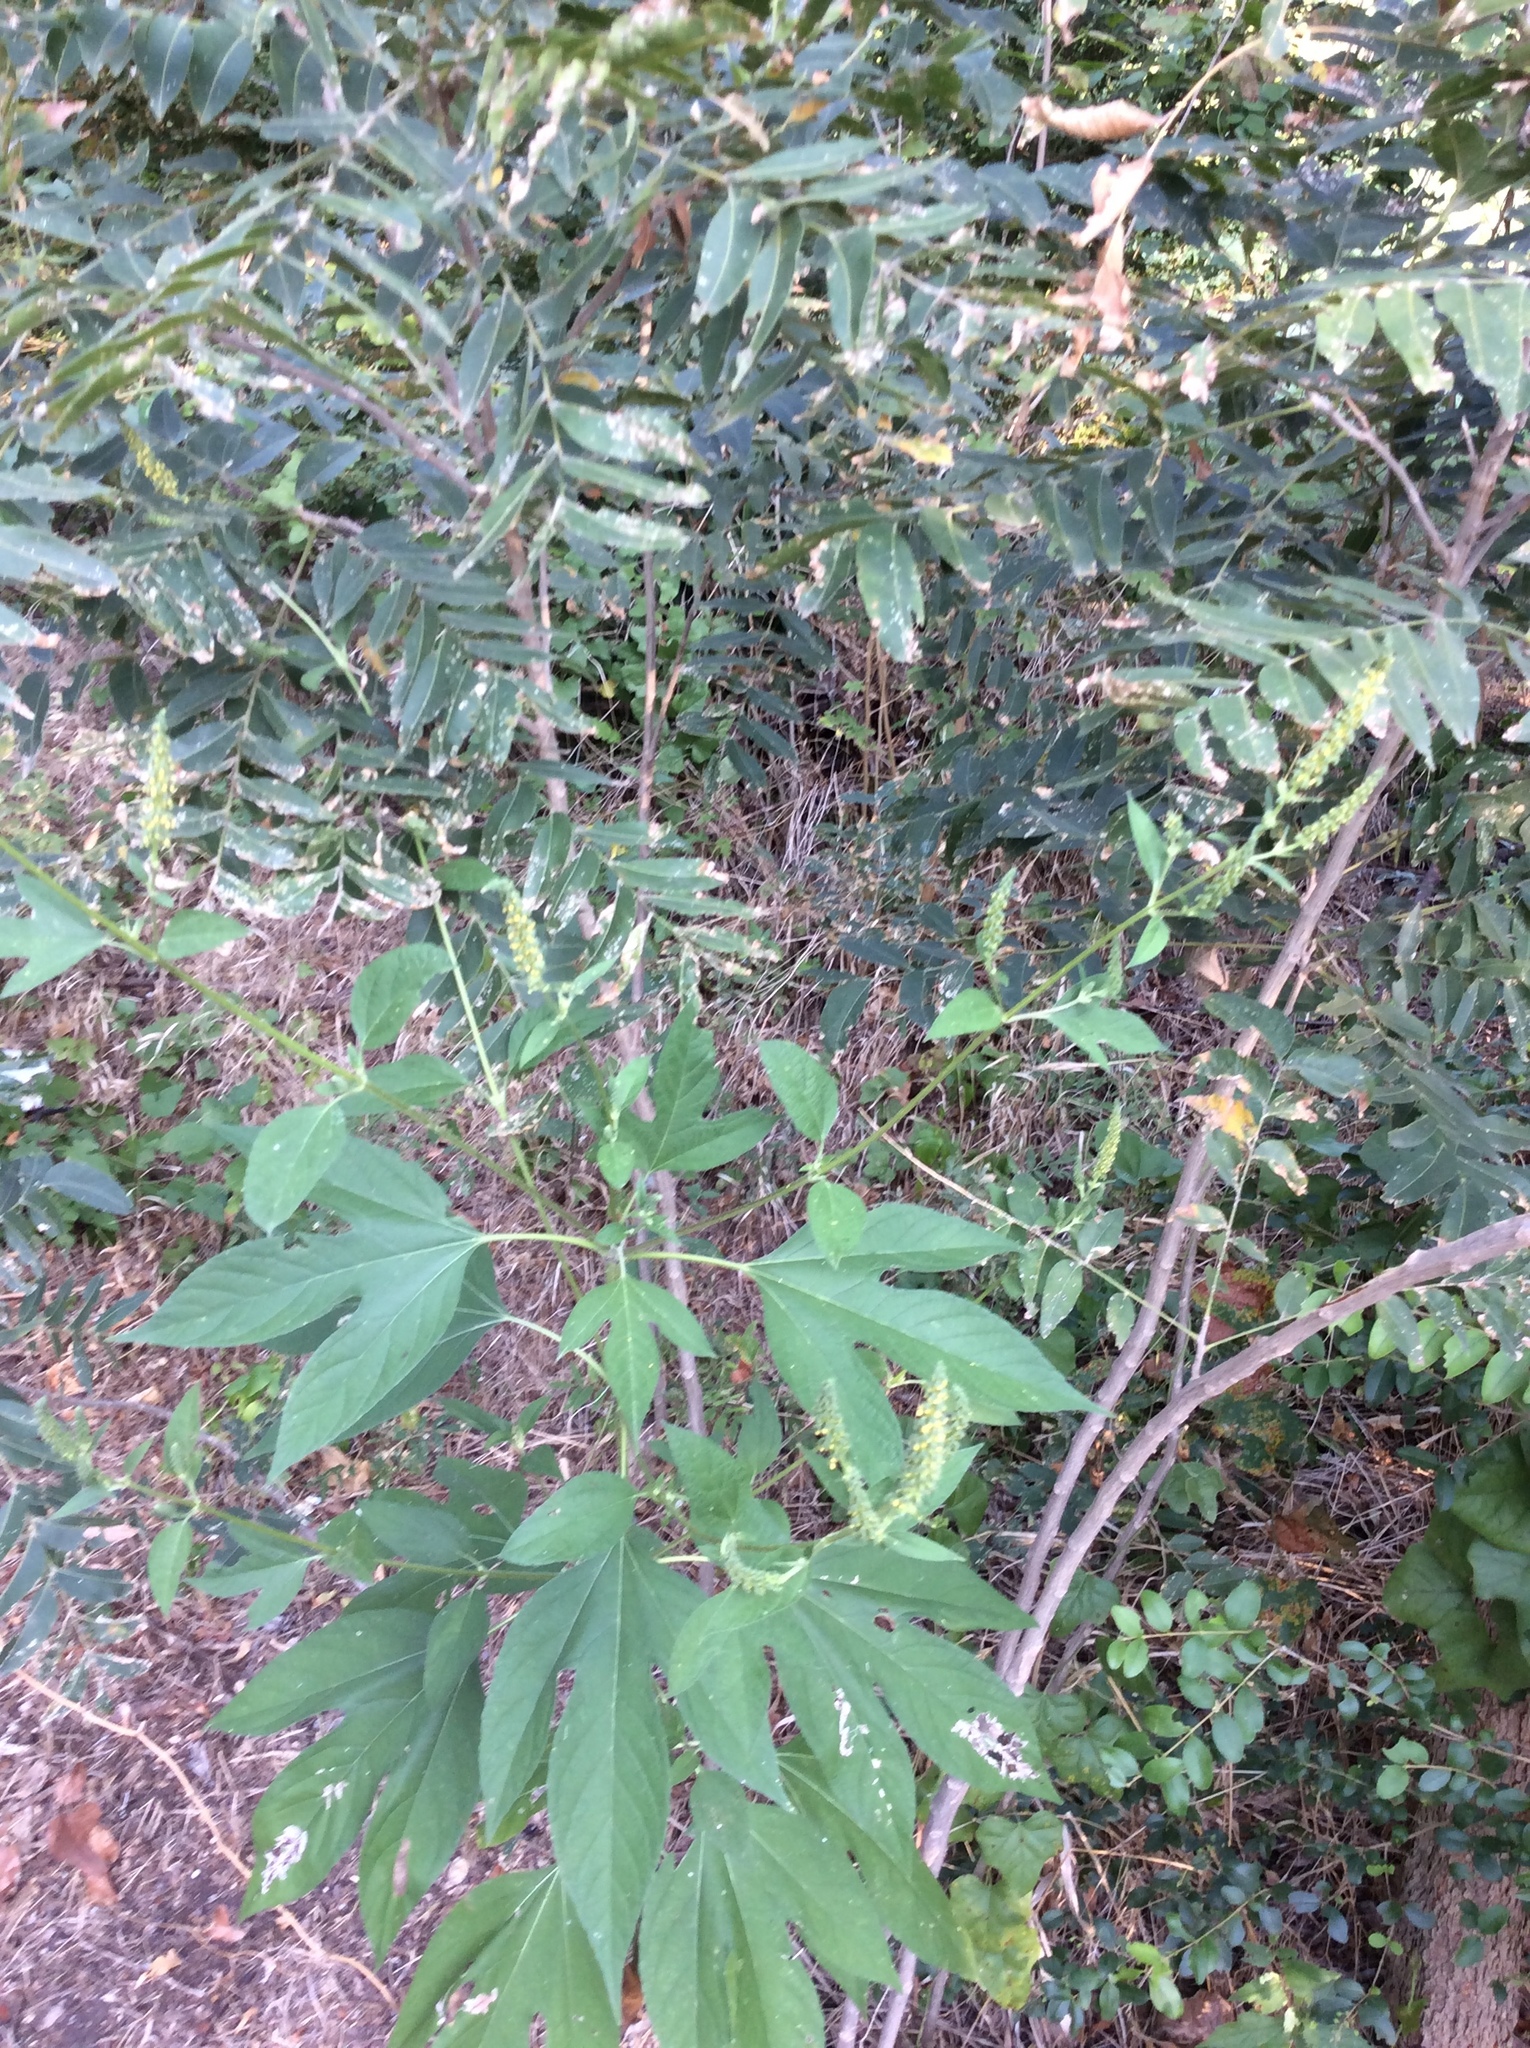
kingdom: Plantae
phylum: Tracheophyta
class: Magnoliopsida
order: Asterales
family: Asteraceae
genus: Ambrosia
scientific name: Ambrosia trifida
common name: Giant ragweed
